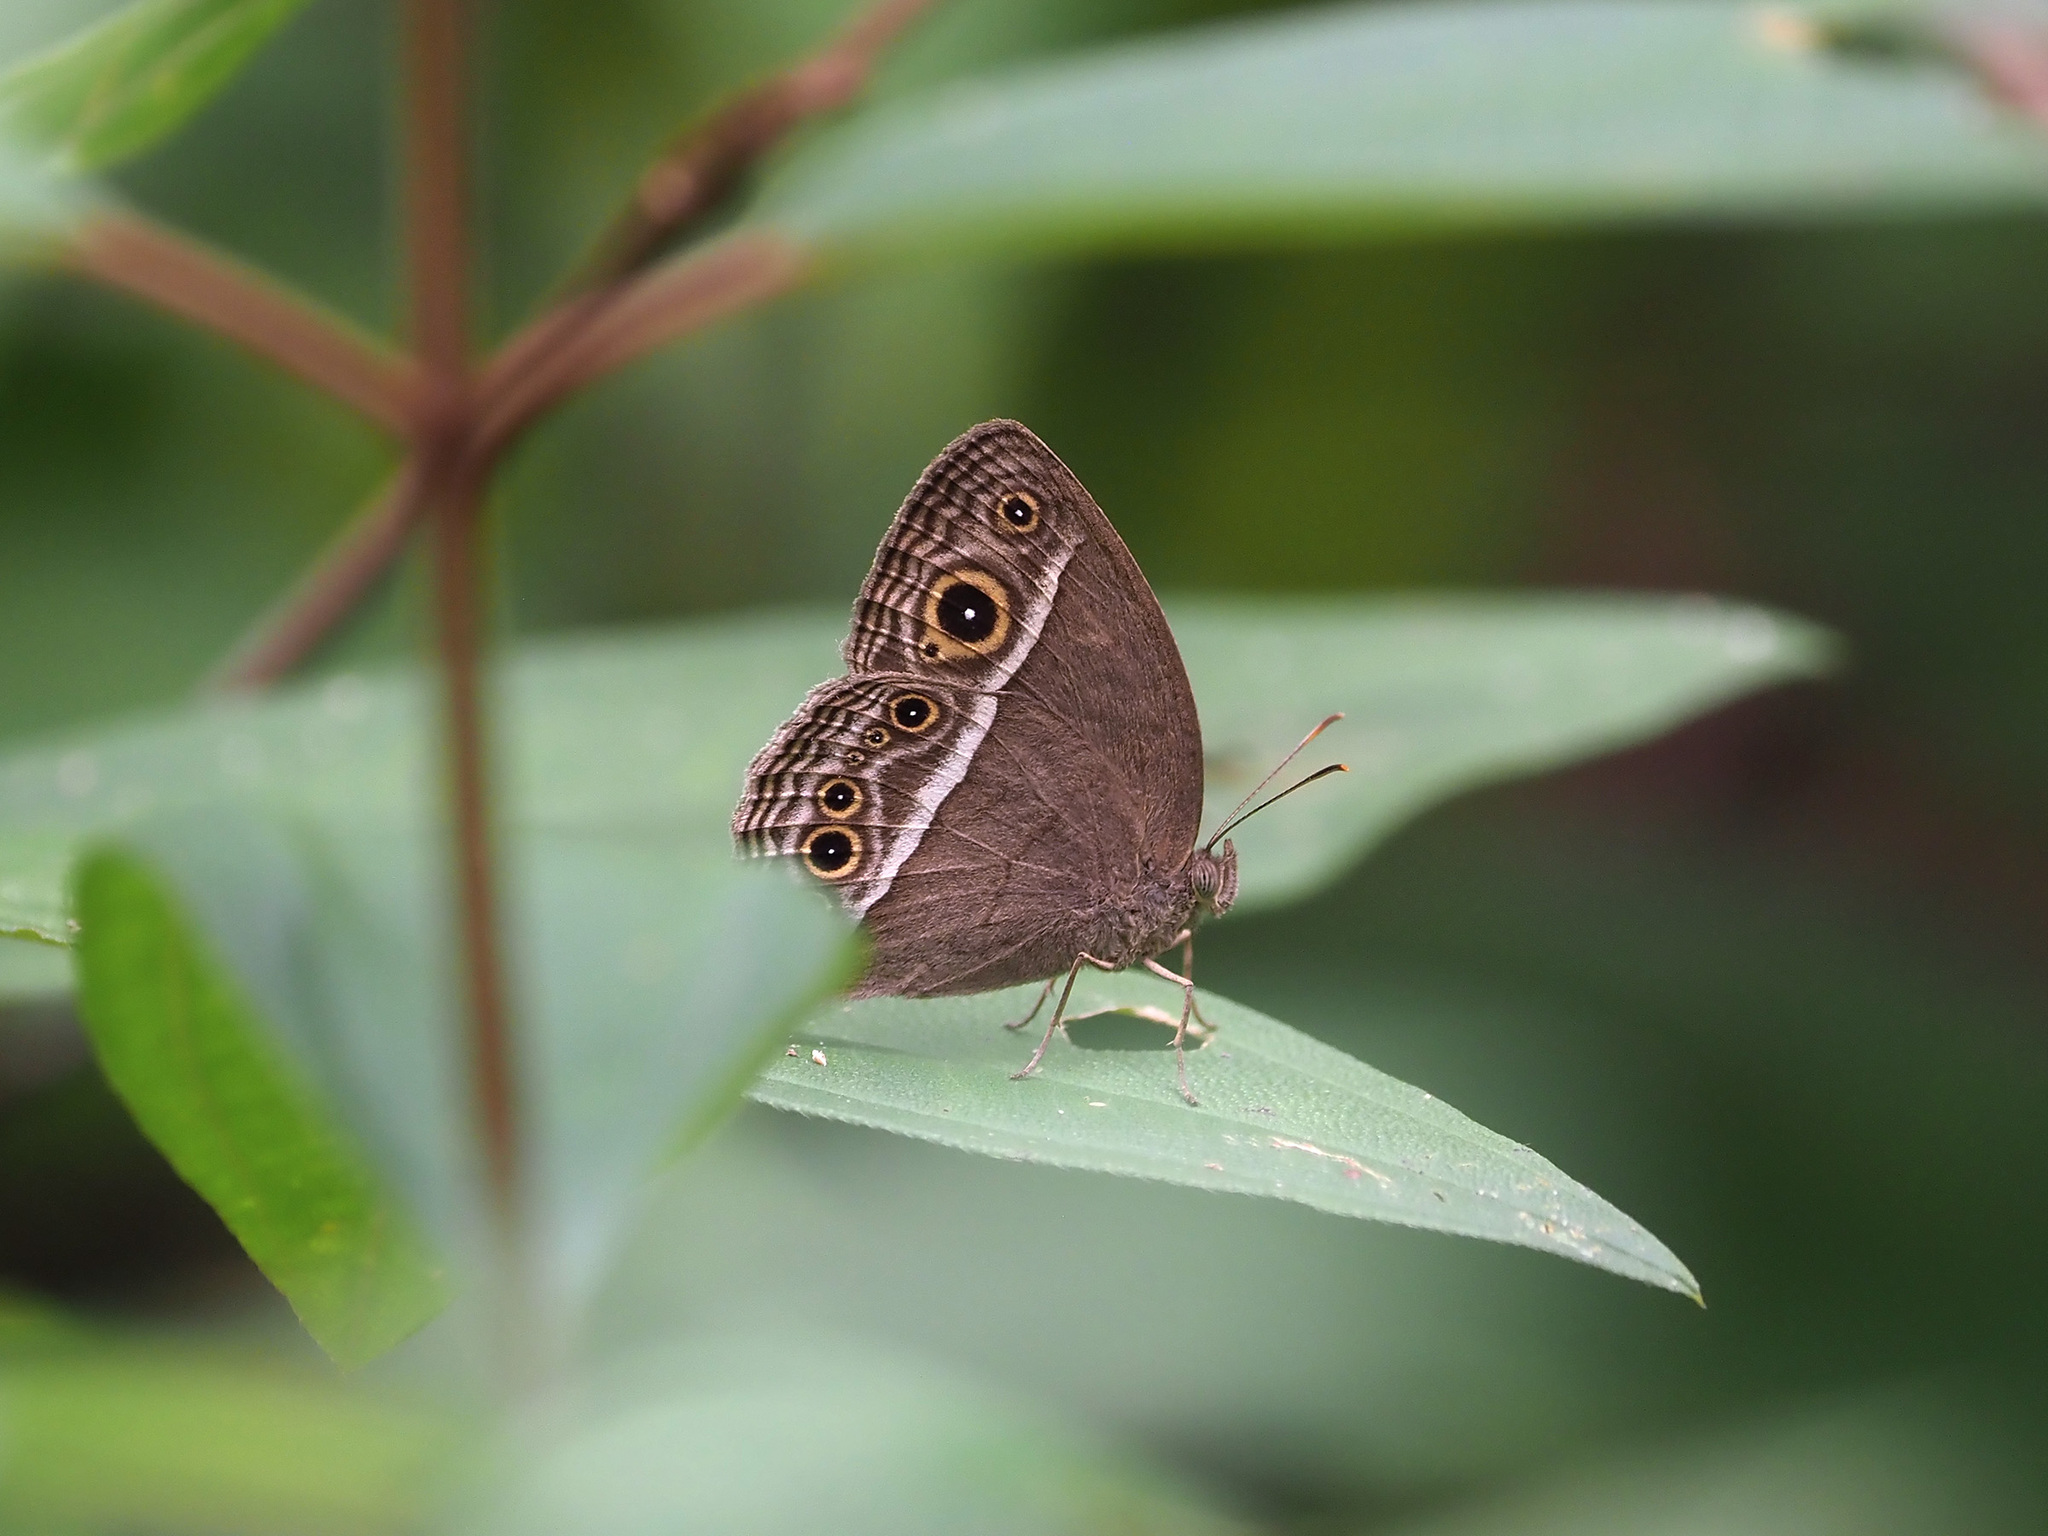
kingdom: Animalia
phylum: Arthropoda
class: Insecta
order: Lepidoptera
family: Nymphalidae
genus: Mycalesis
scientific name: Mycalesis visala
